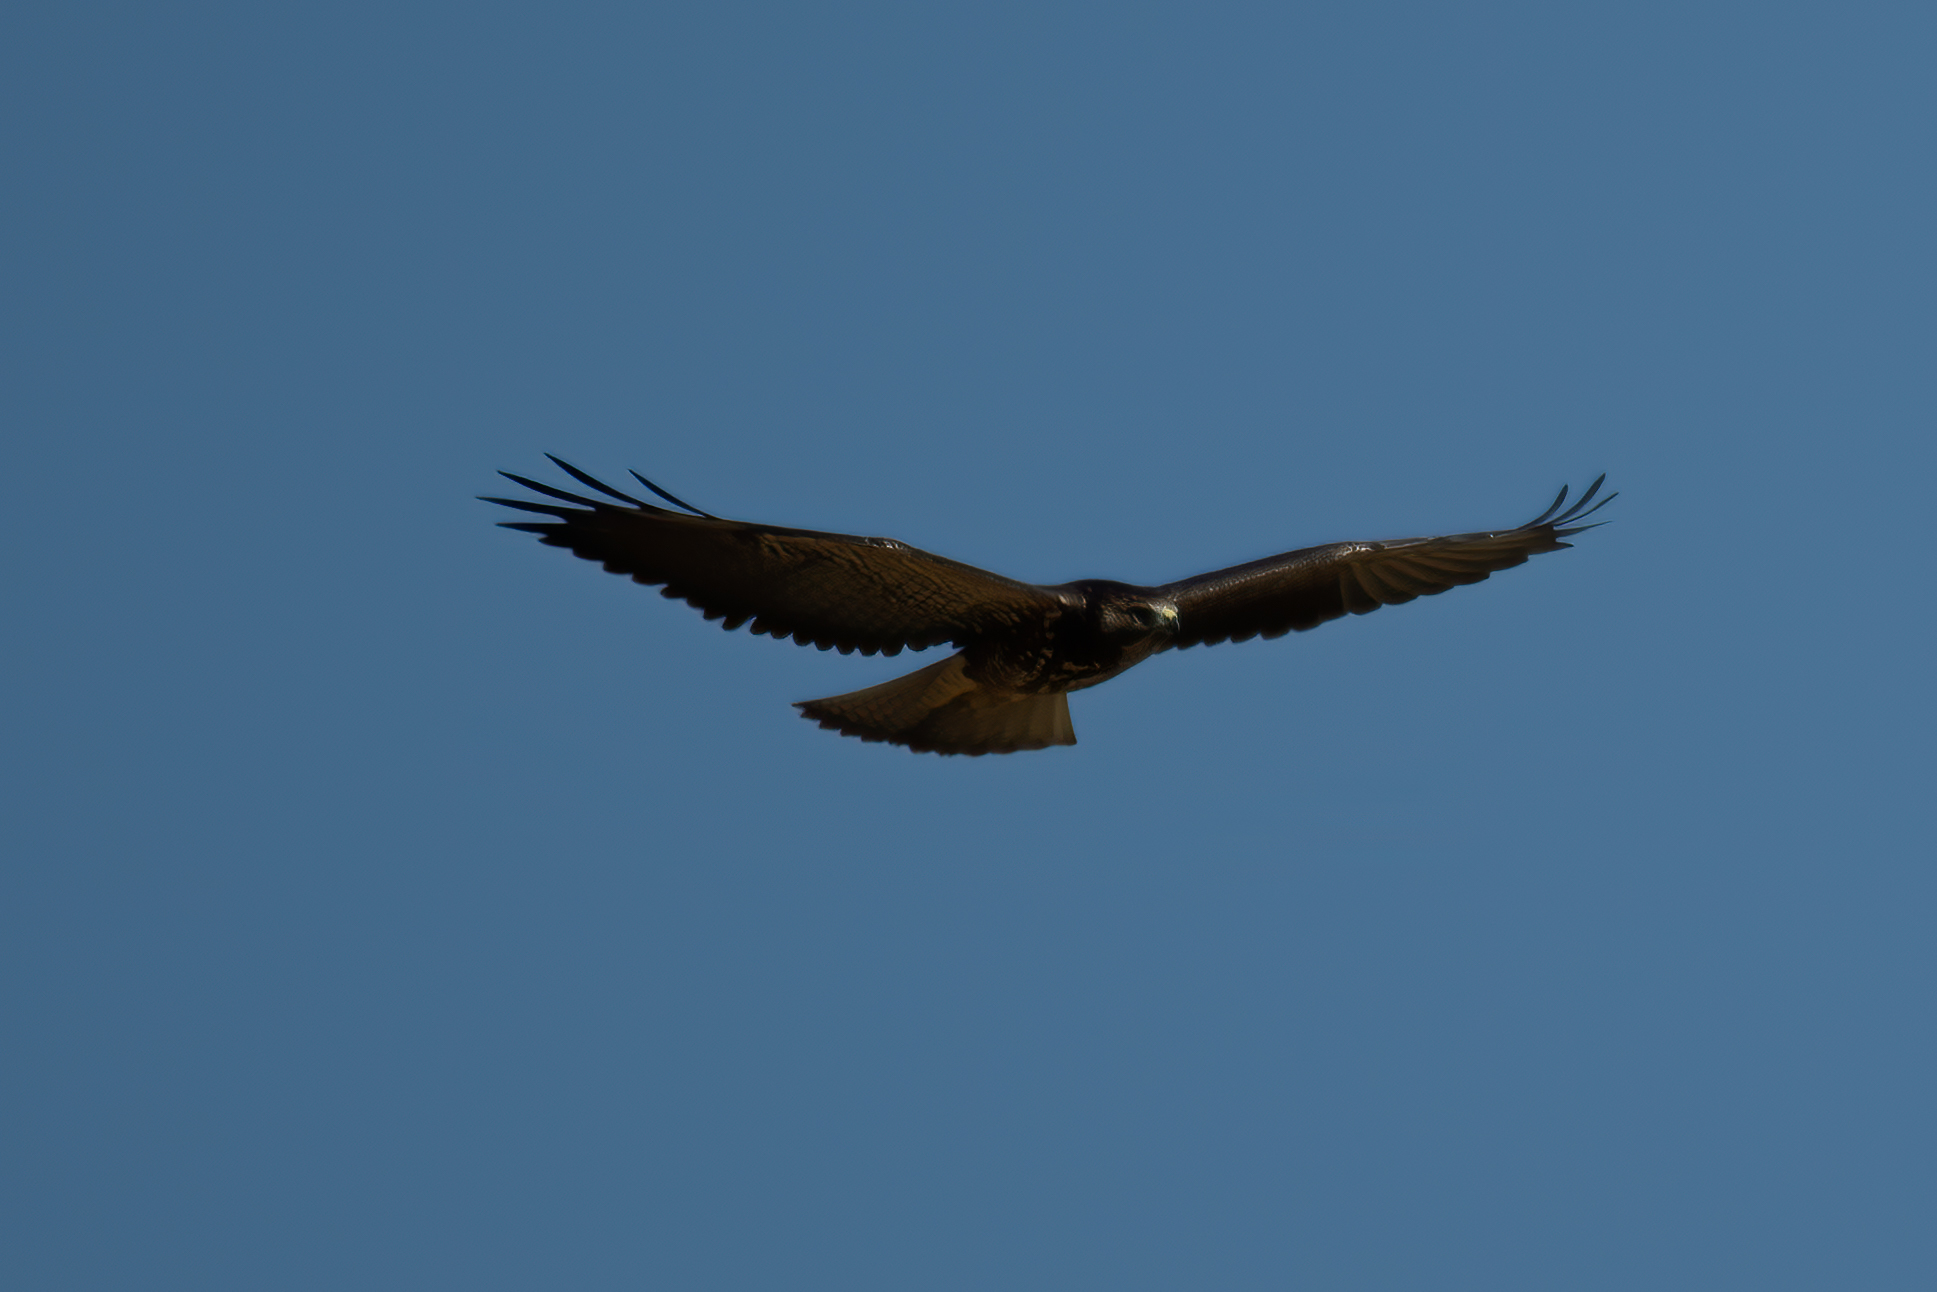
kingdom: Animalia
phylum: Chordata
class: Aves
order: Accipitriformes
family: Accipitridae
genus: Buteo
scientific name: Buteo swainsoni
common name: Swainson's hawk
